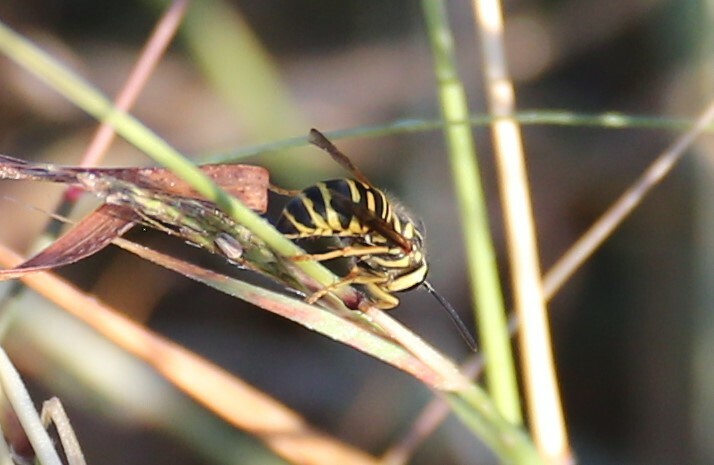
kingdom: Animalia
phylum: Arthropoda
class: Insecta
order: Hymenoptera
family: Vespidae
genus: Vespula
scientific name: Vespula squamosa
